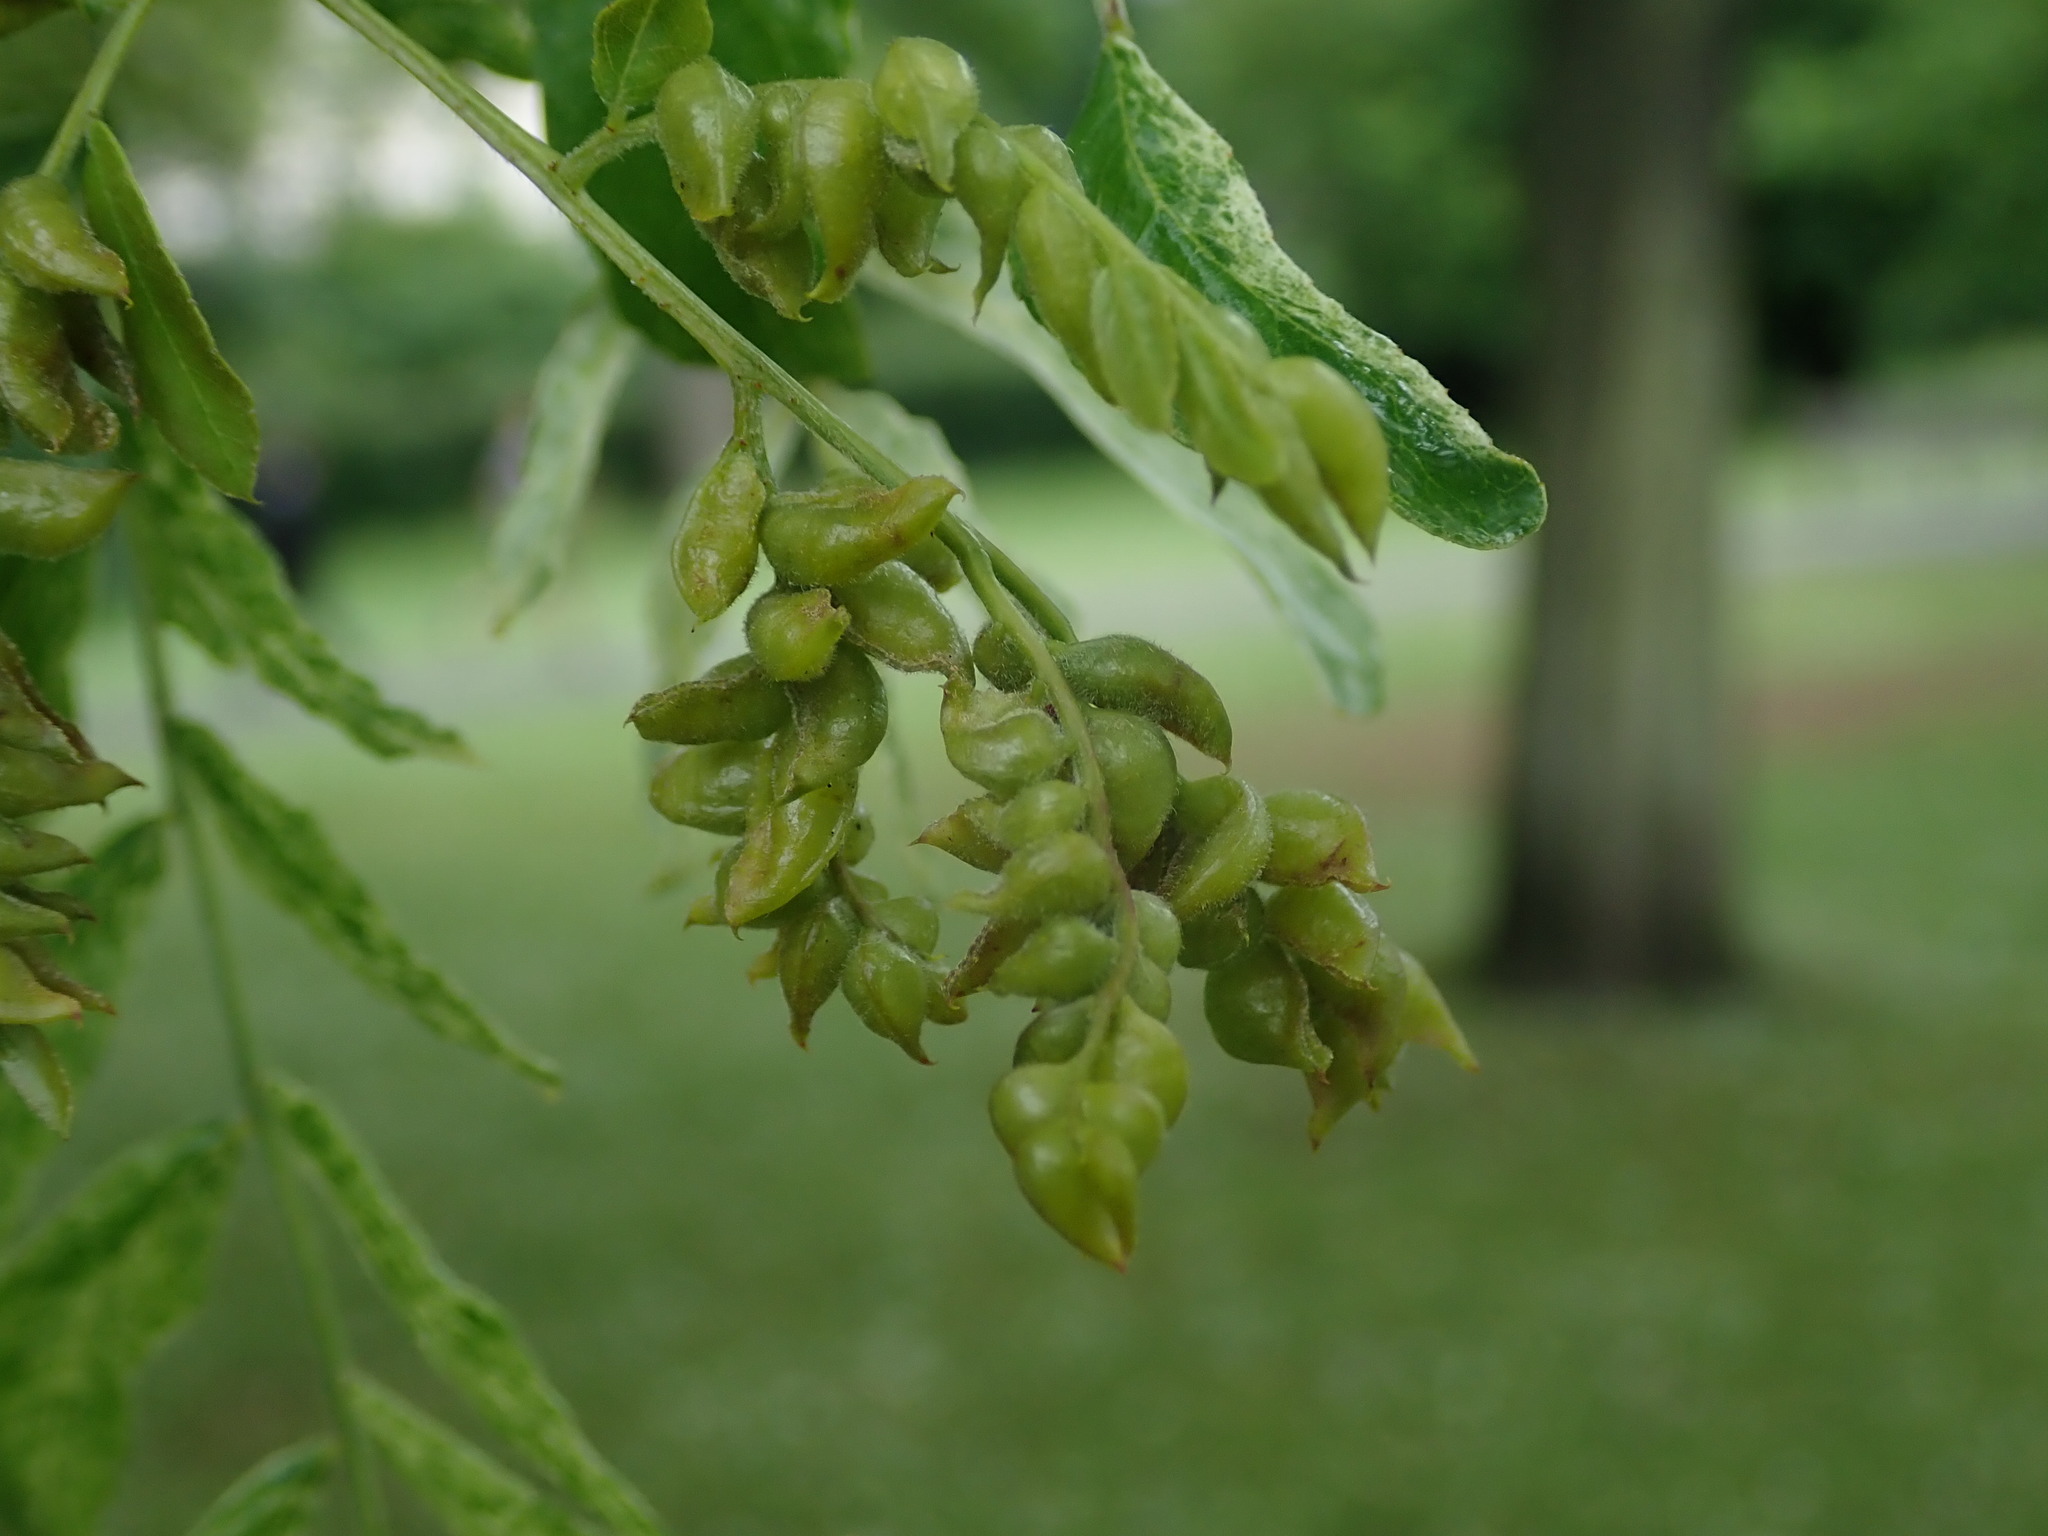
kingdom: Animalia
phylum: Arthropoda
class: Insecta
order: Diptera
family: Cecidomyiidae
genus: Dasineura
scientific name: Dasineura gleditchiae
